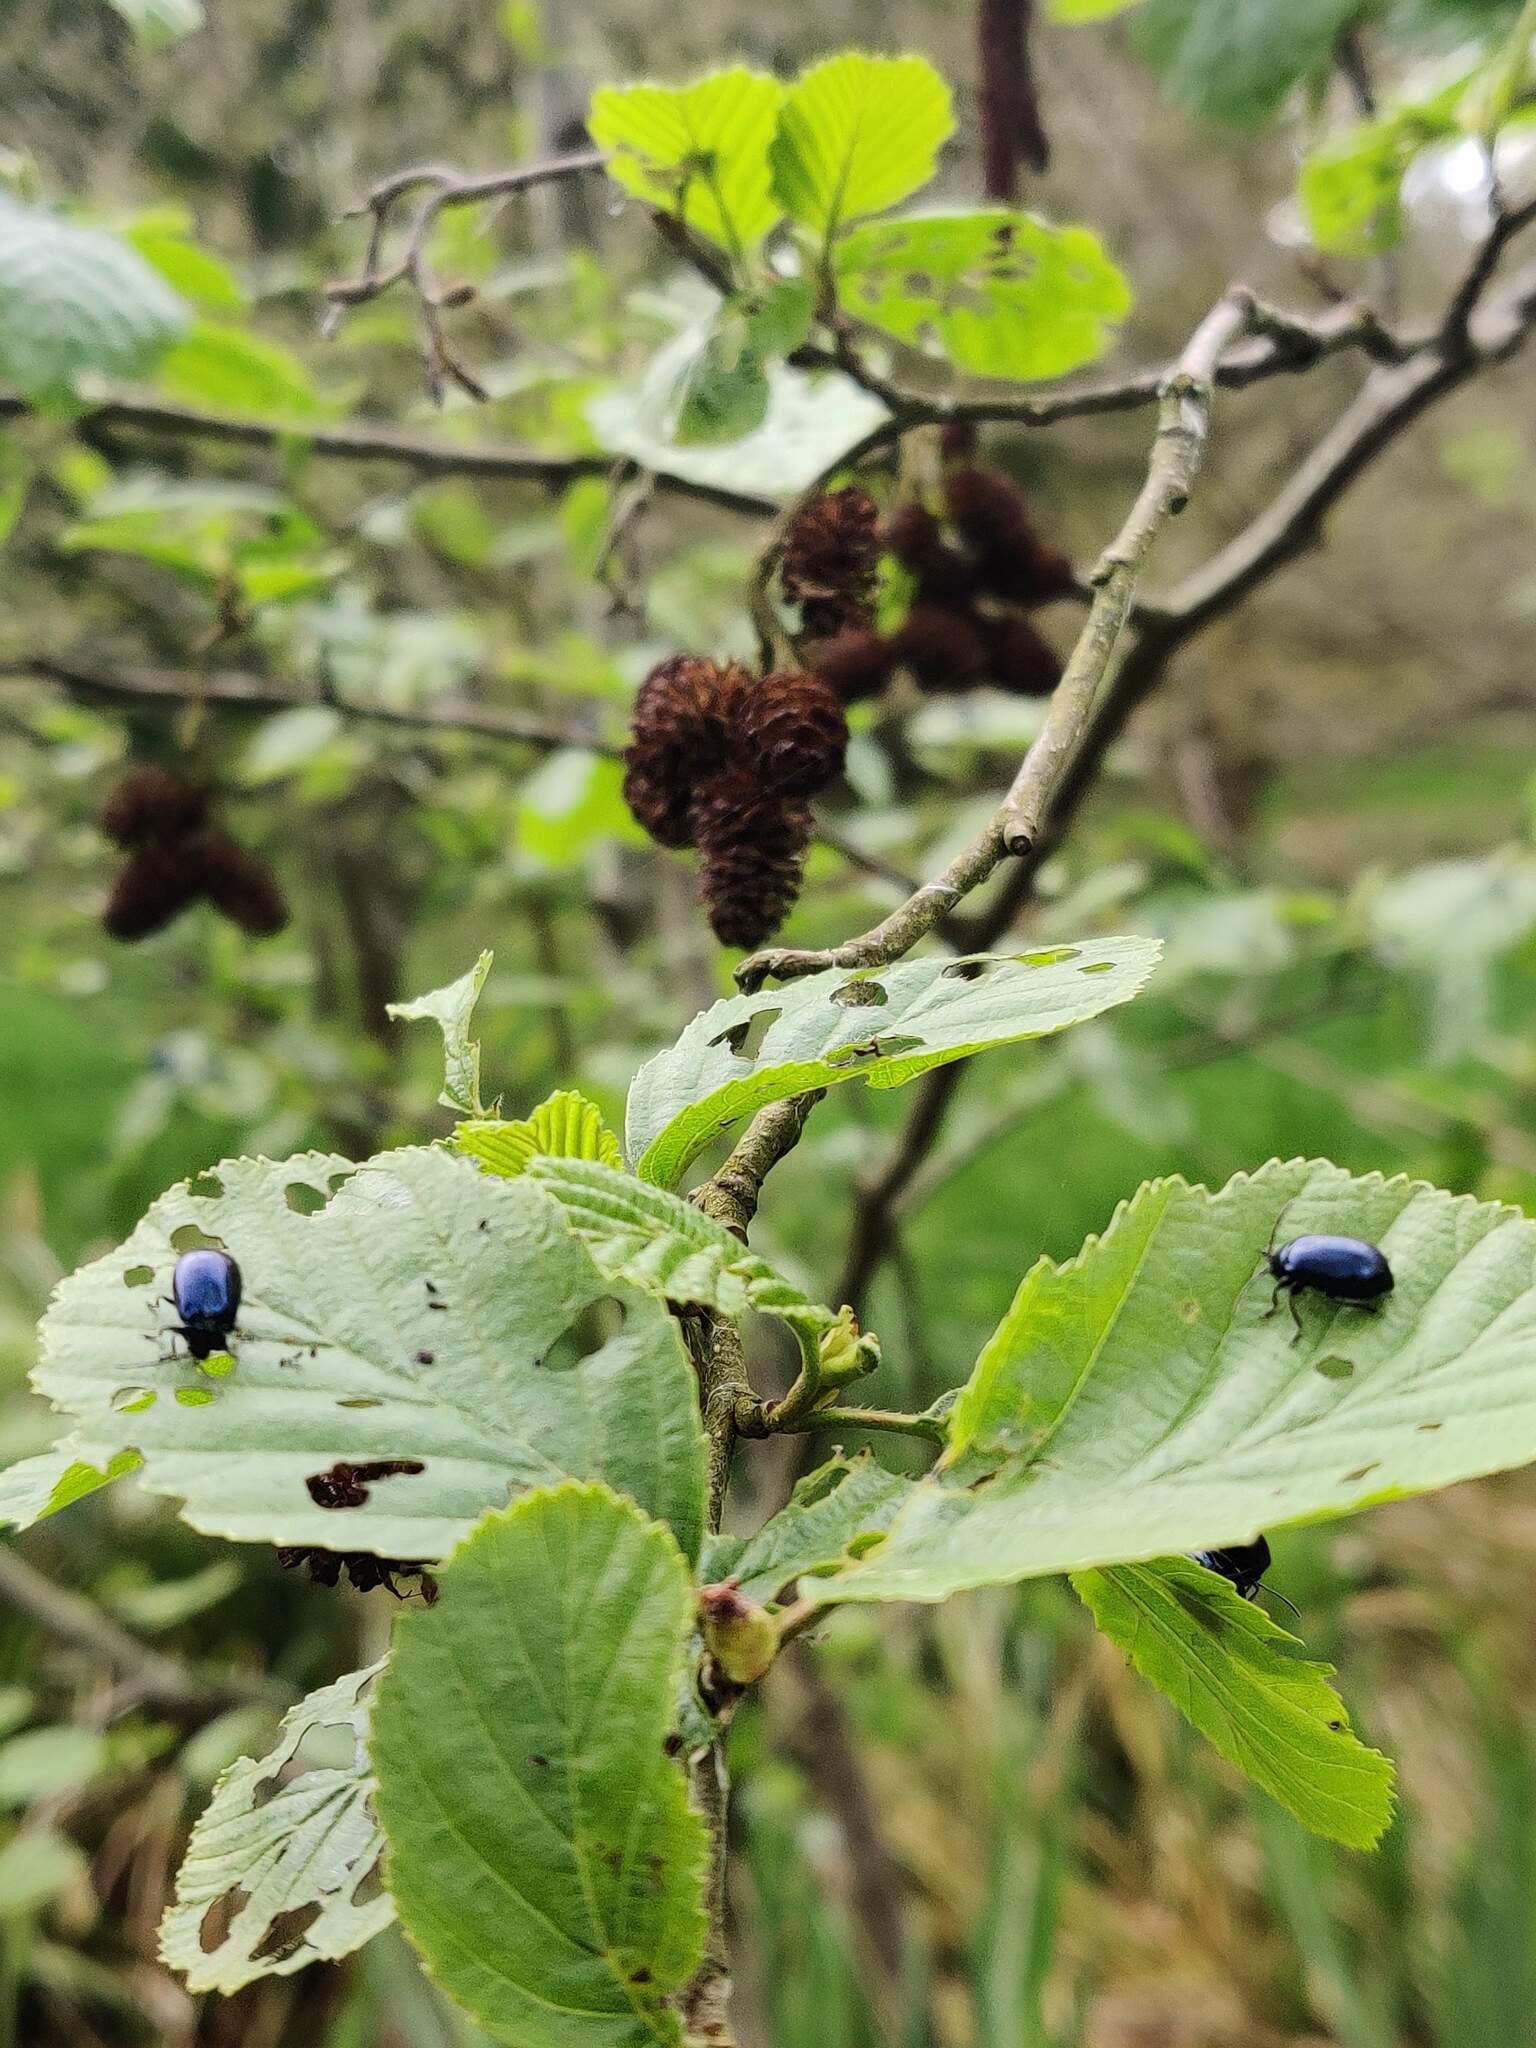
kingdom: Animalia
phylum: Arthropoda
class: Insecta
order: Coleoptera
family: Chrysomelidae
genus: Agelastica
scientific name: Agelastica alni
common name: Alder leaf beetle
